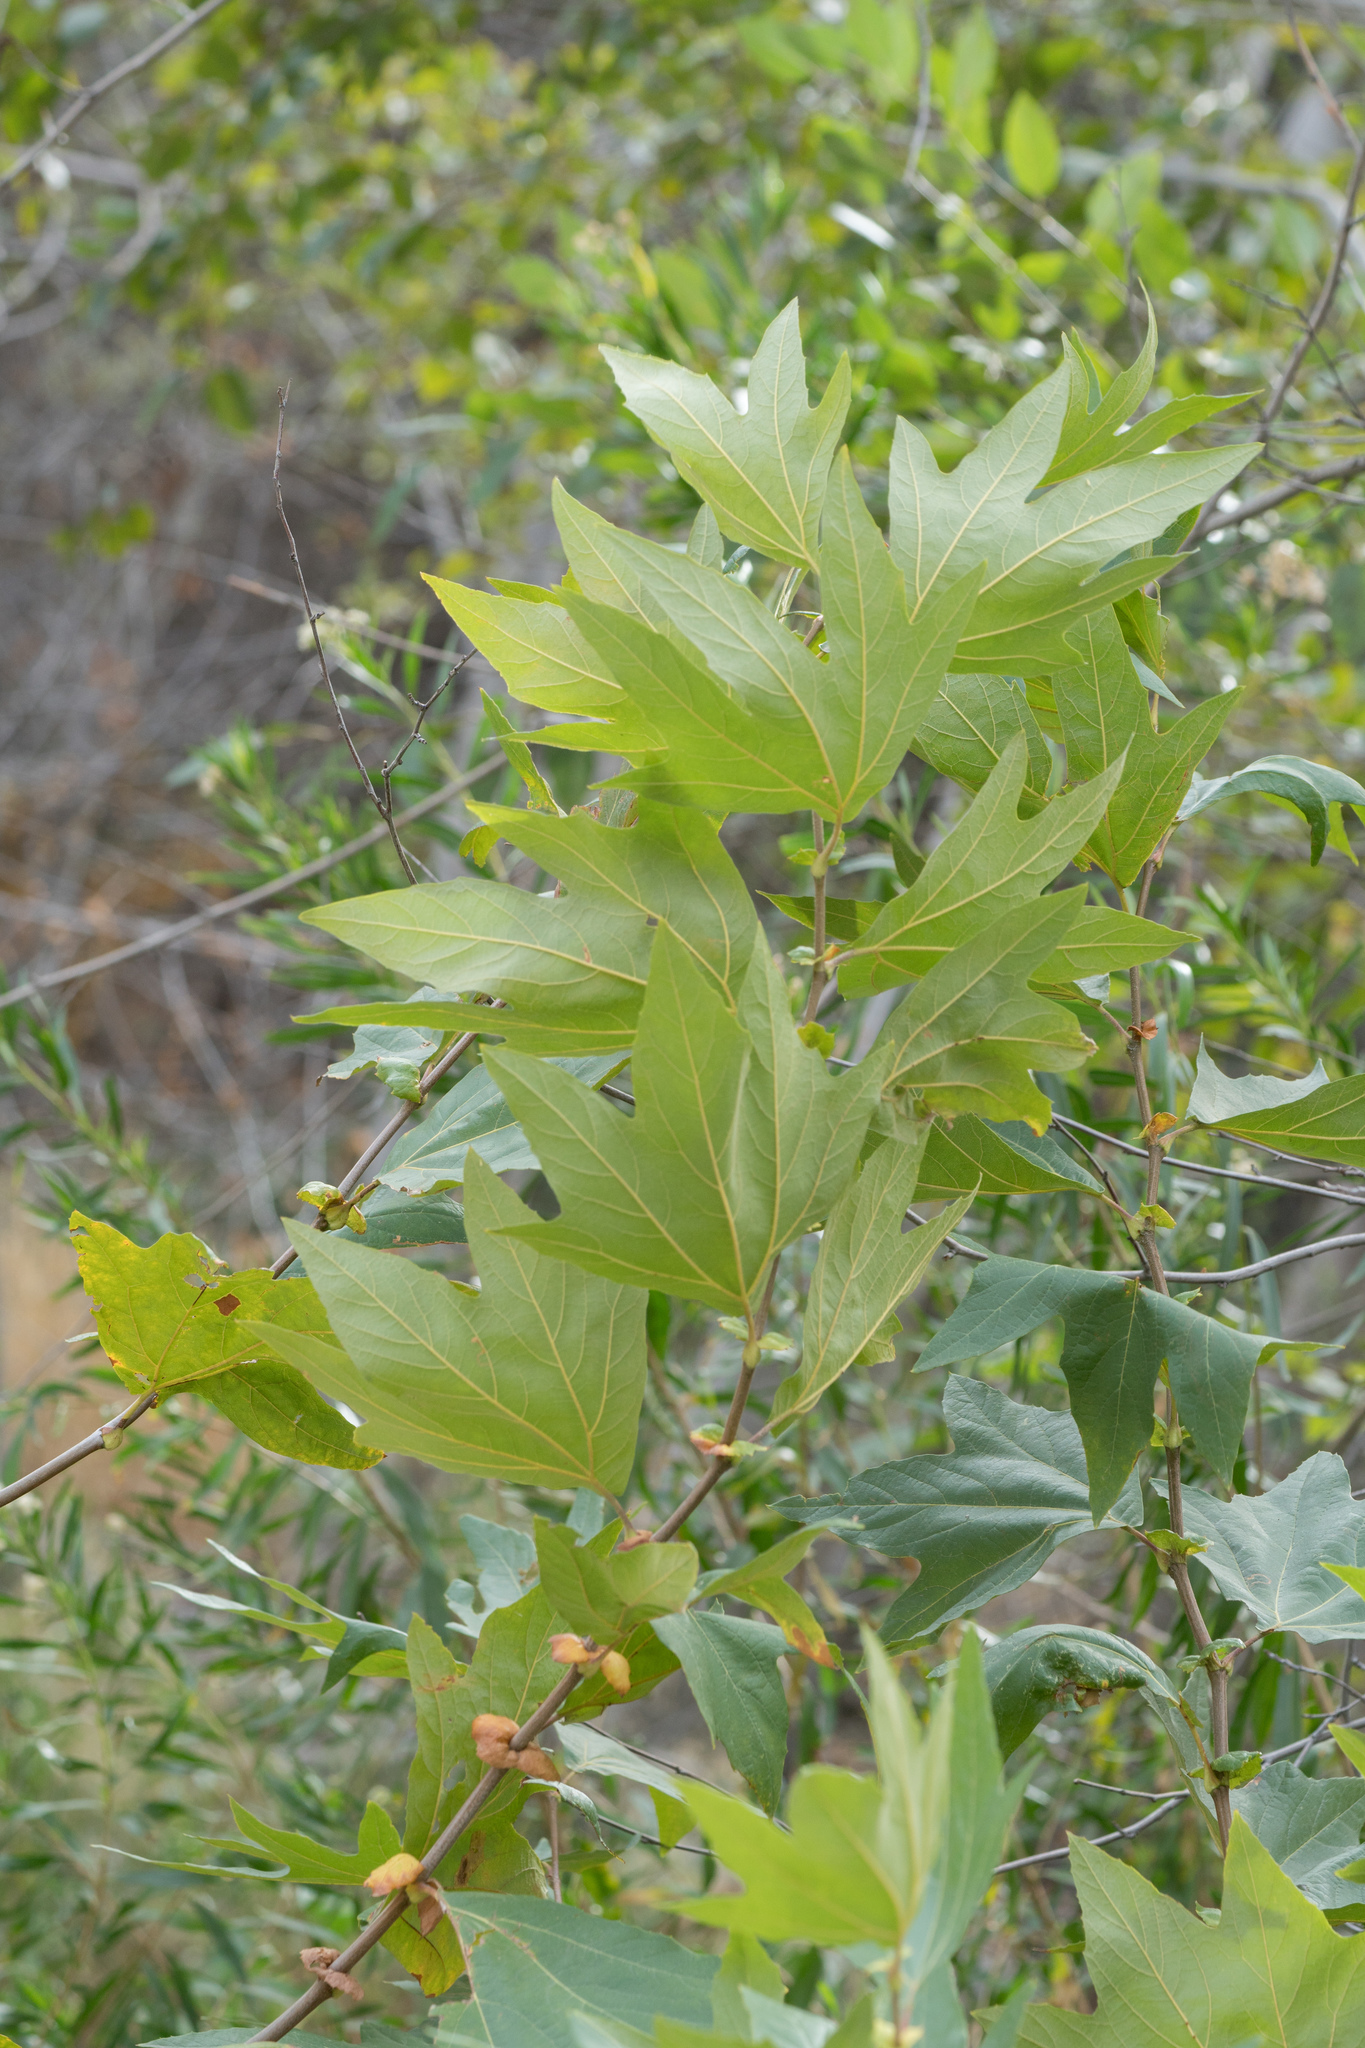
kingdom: Plantae
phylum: Tracheophyta
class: Magnoliopsida
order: Proteales
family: Platanaceae
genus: Platanus
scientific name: Platanus racemosa
